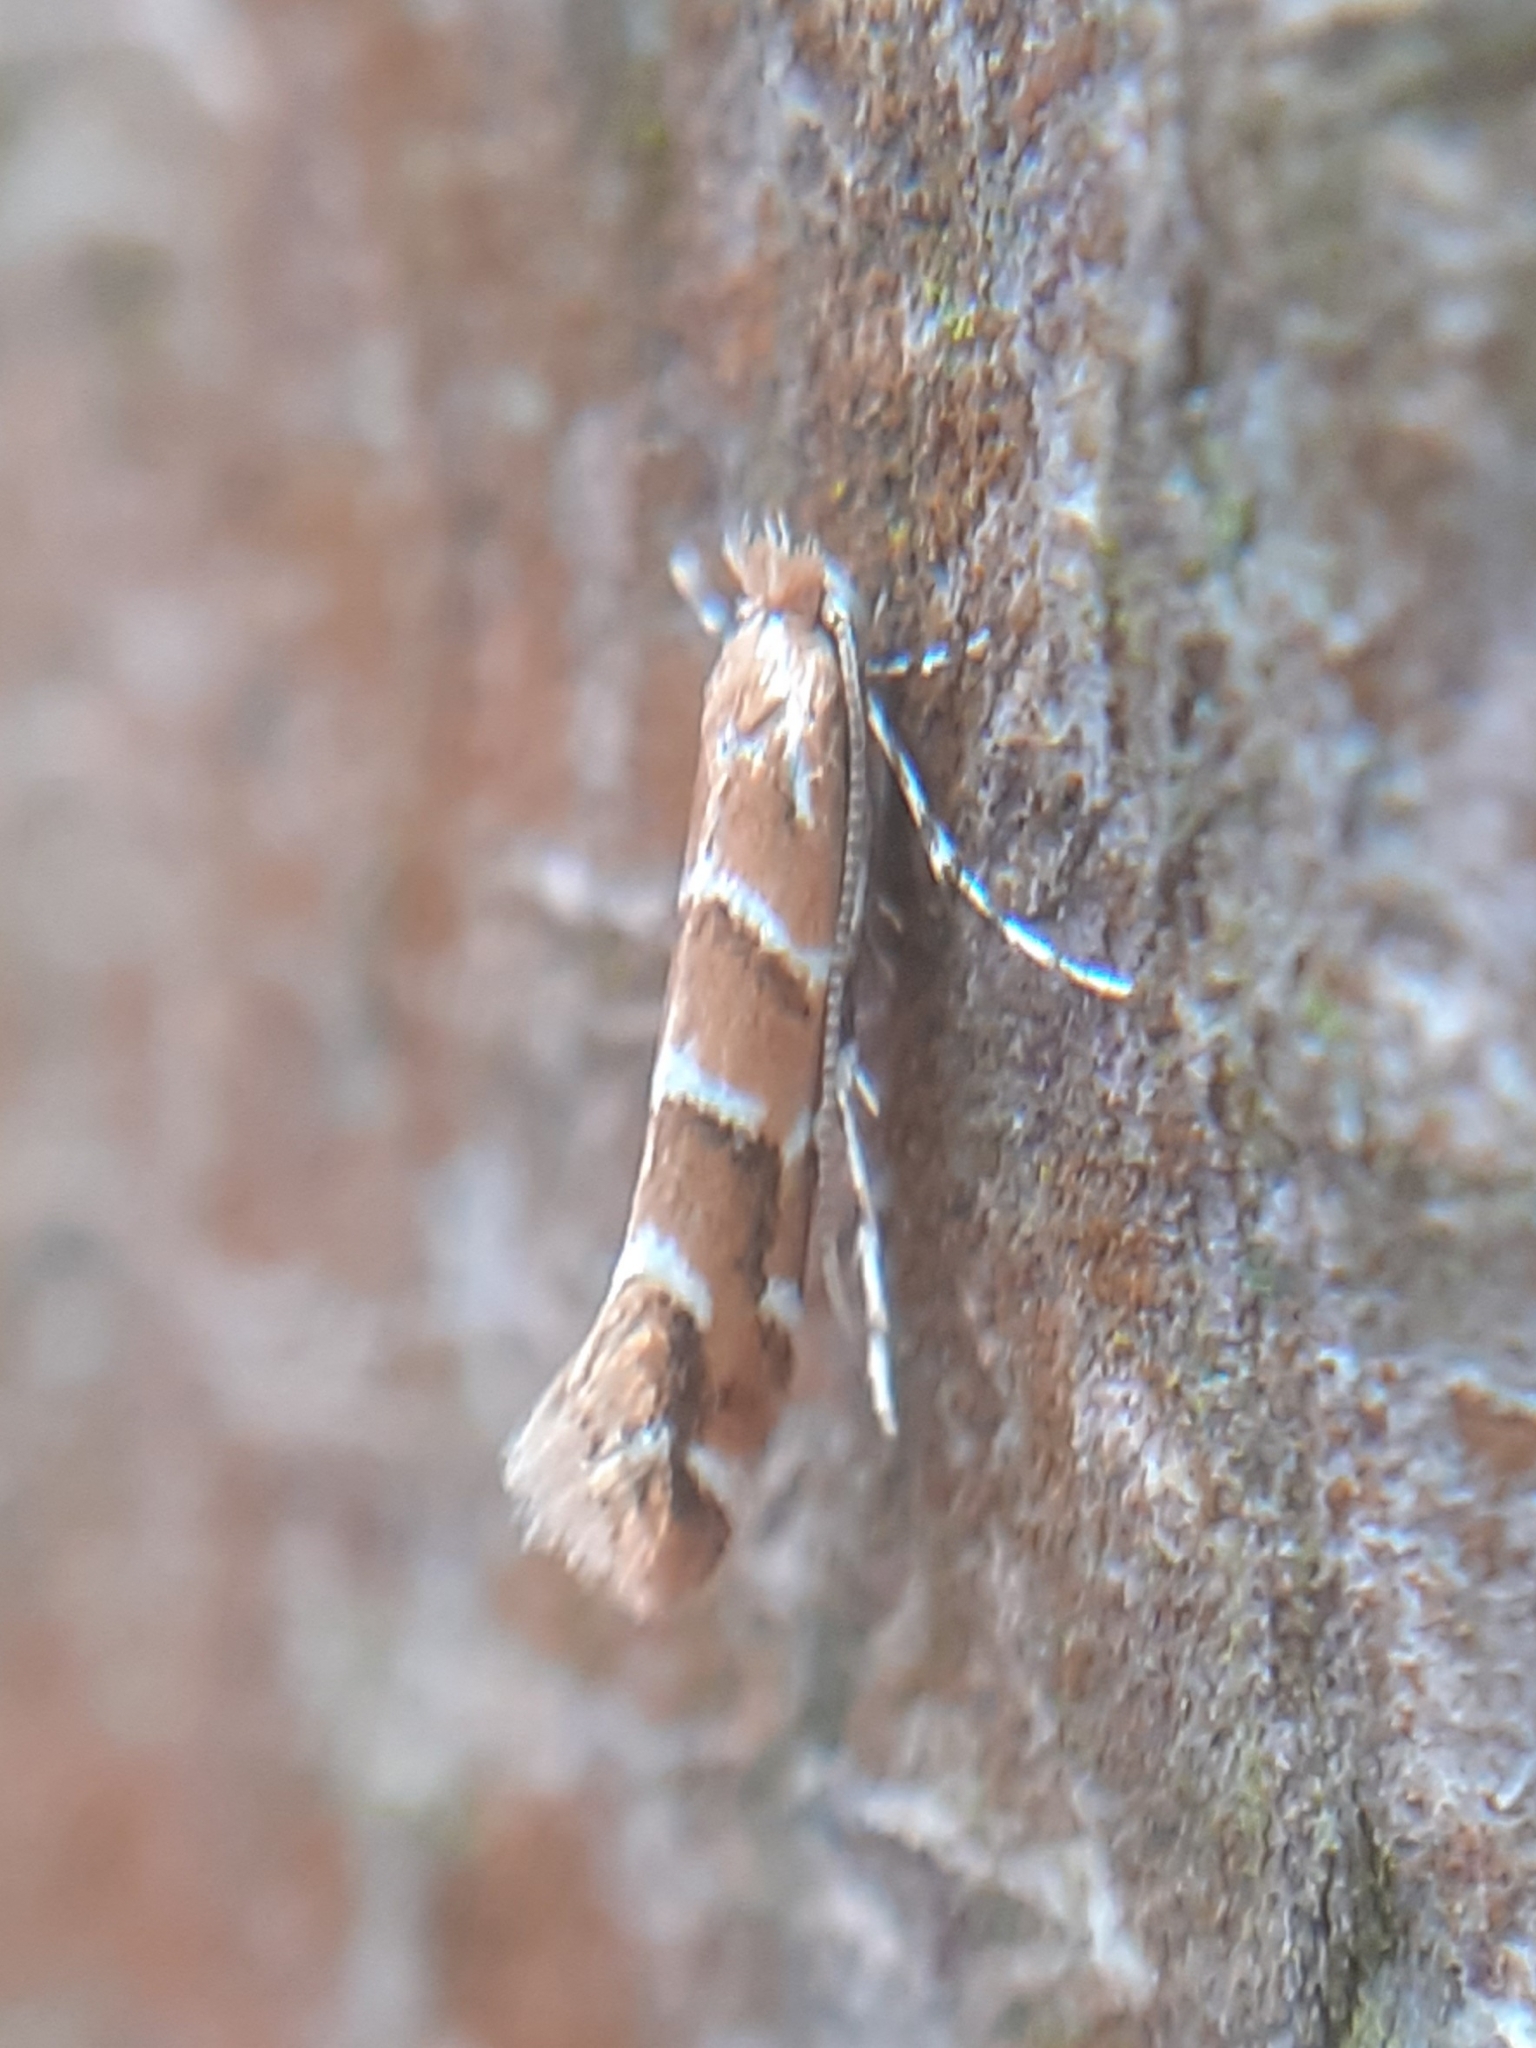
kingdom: Animalia
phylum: Arthropoda
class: Insecta
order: Lepidoptera
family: Gracillariidae
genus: Cameraria
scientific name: Cameraria ohridella
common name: Horse-chestnut leaf-miner
